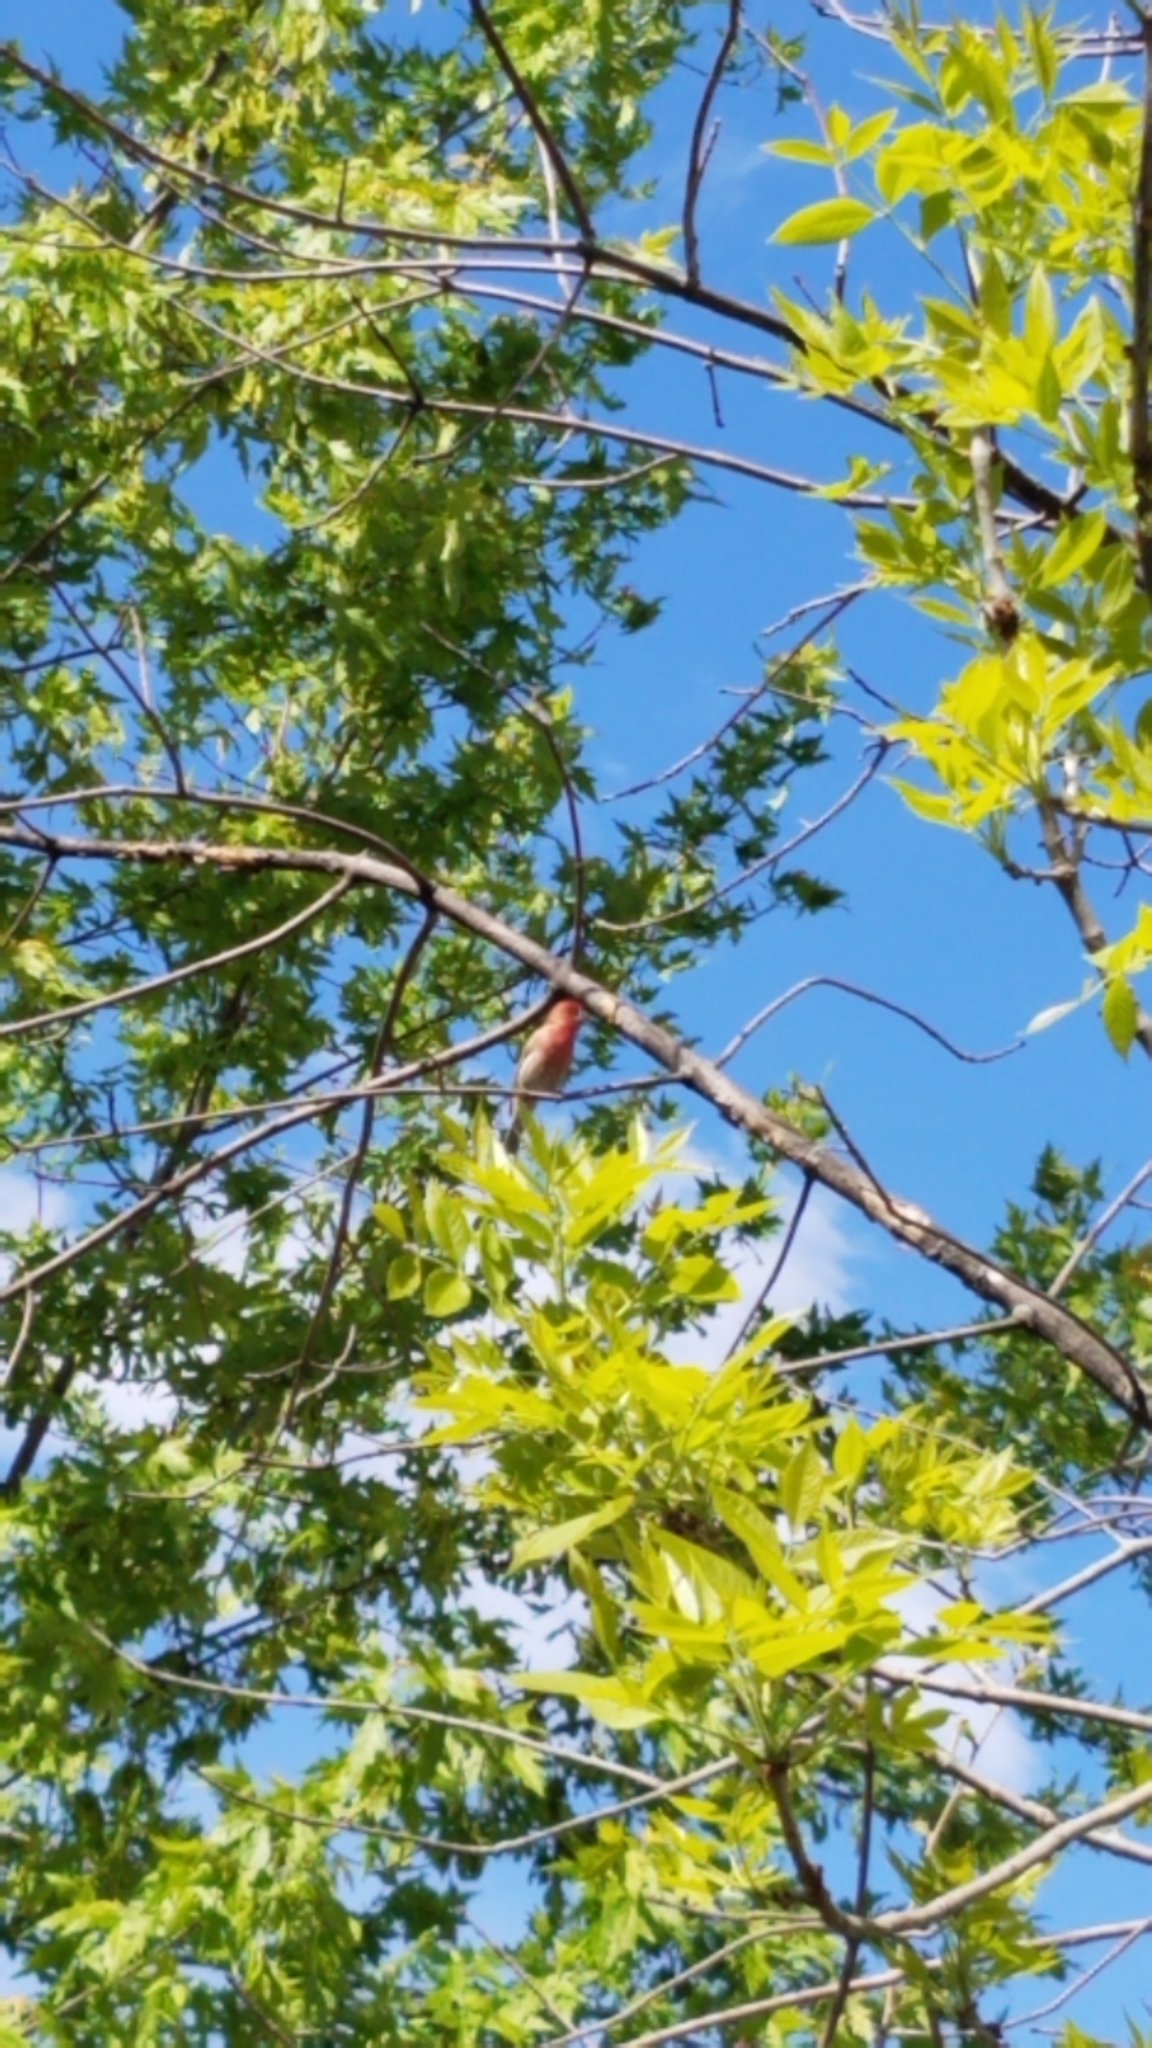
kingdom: Animalia
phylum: Chordata
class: Aves
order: Passeriformes
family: Fringillidae
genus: Haemorhous
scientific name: Haemorhous mexicanus
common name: House finch
